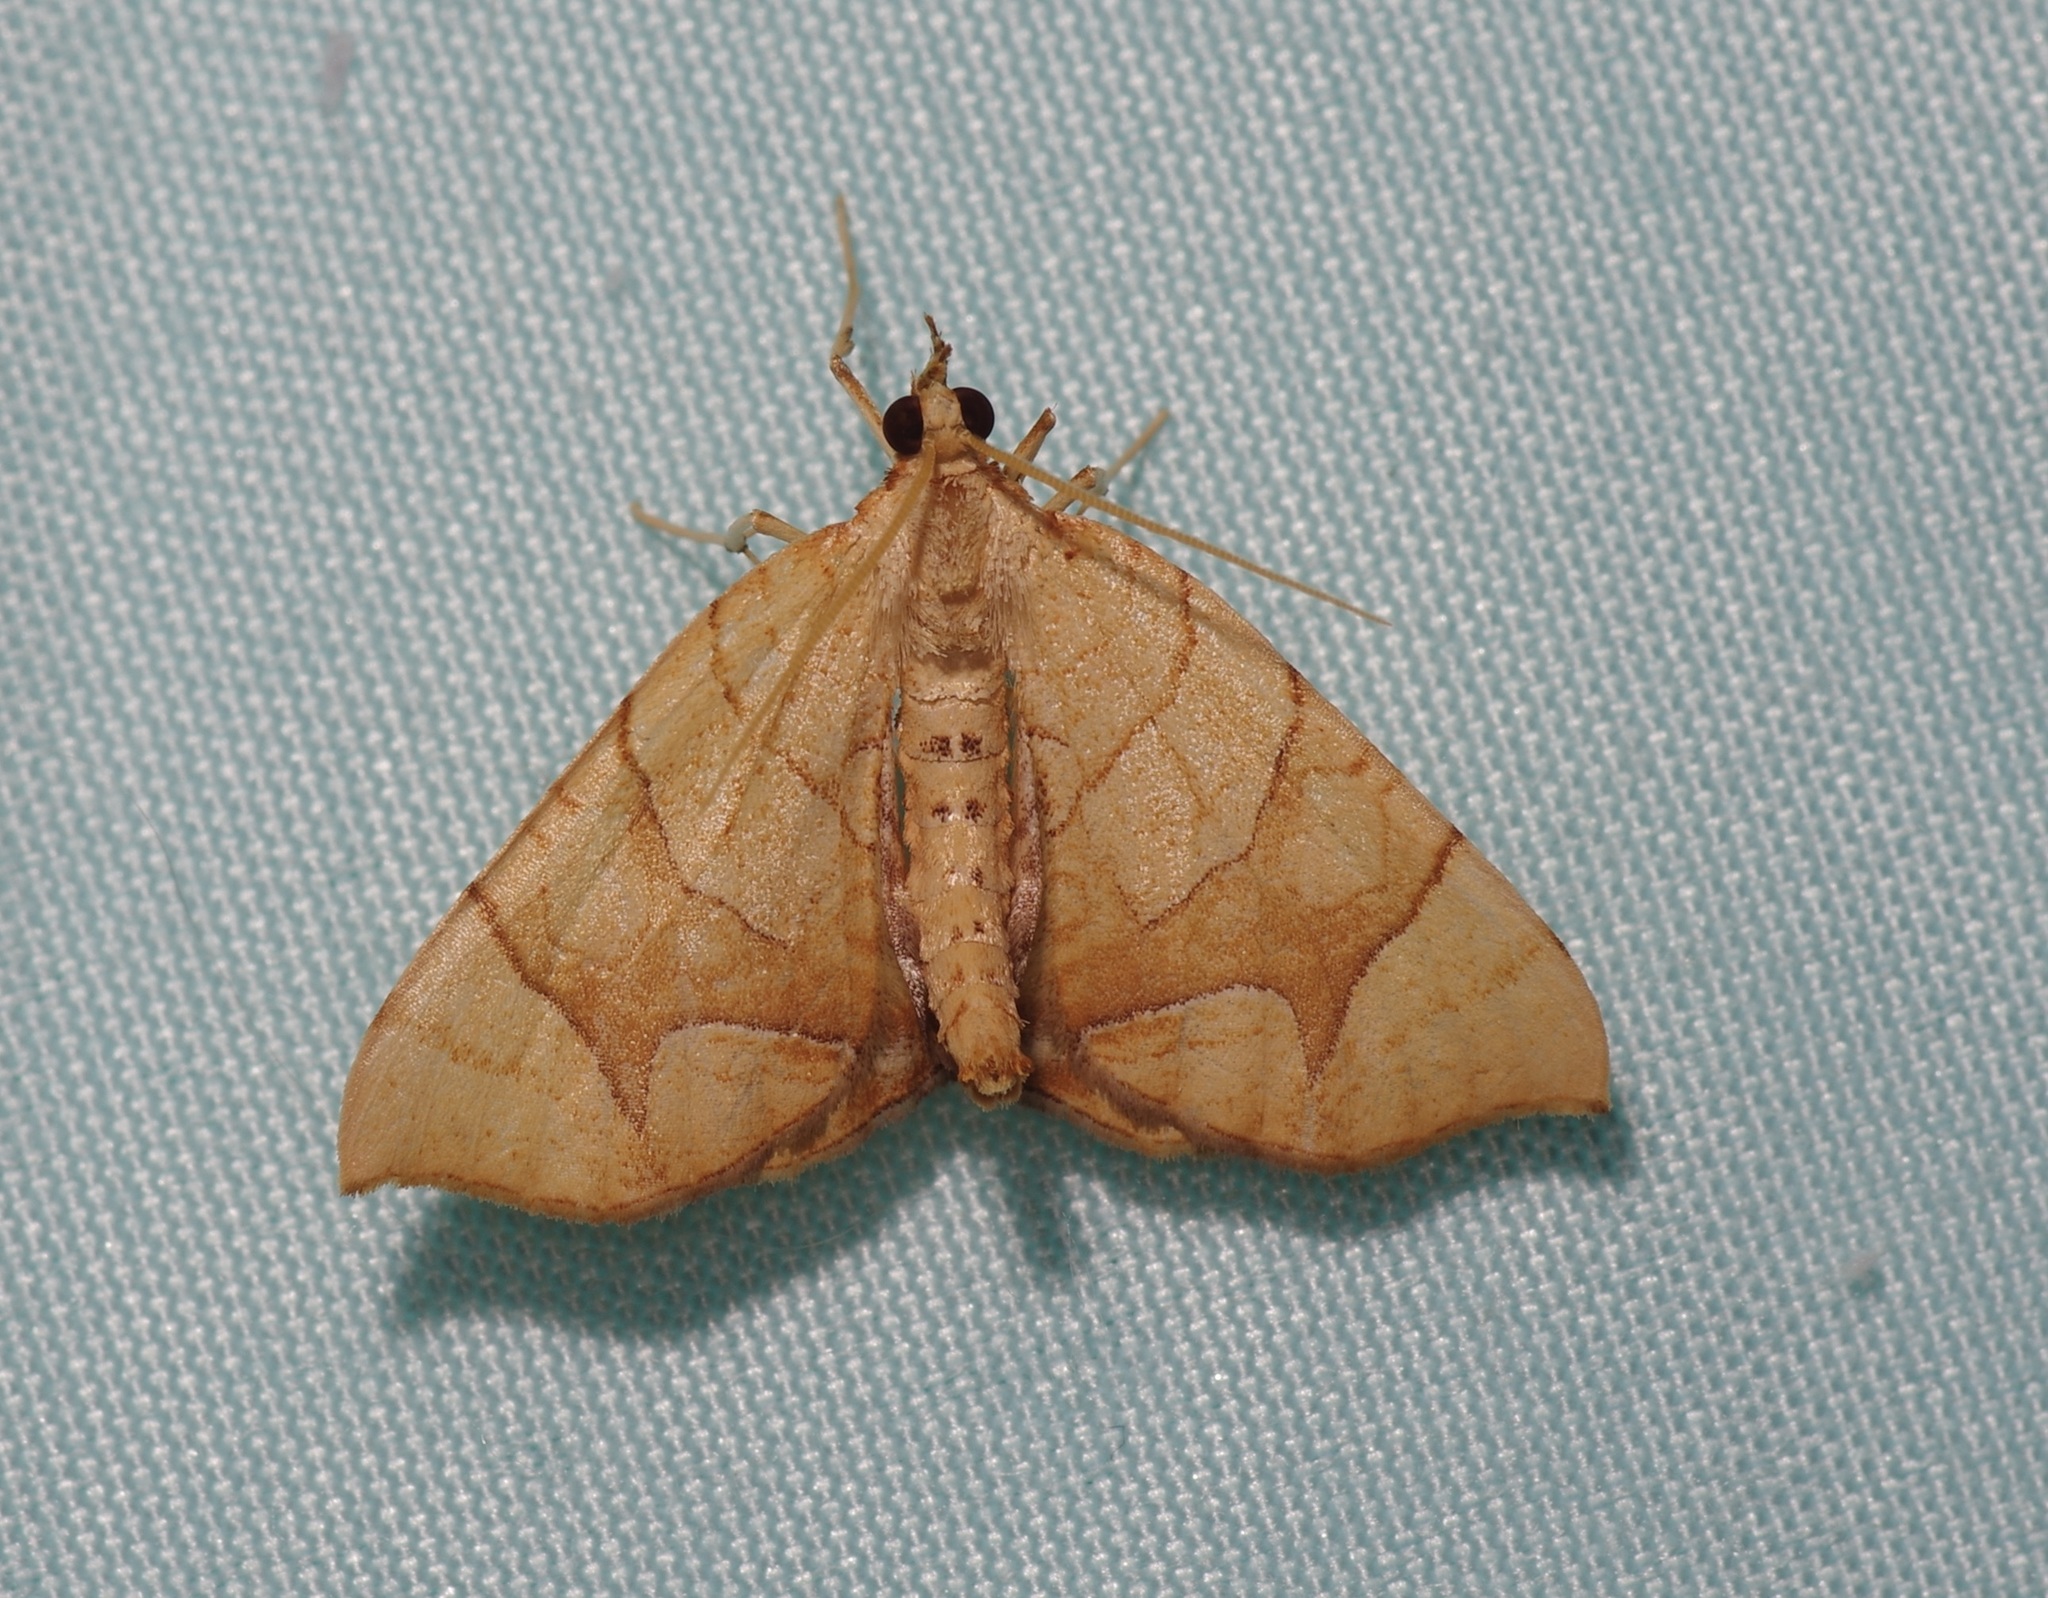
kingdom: Animalia
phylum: Arthropoda
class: Insecta
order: Lepidoptera
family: Geometridae
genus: Eulithis
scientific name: Eulithis
